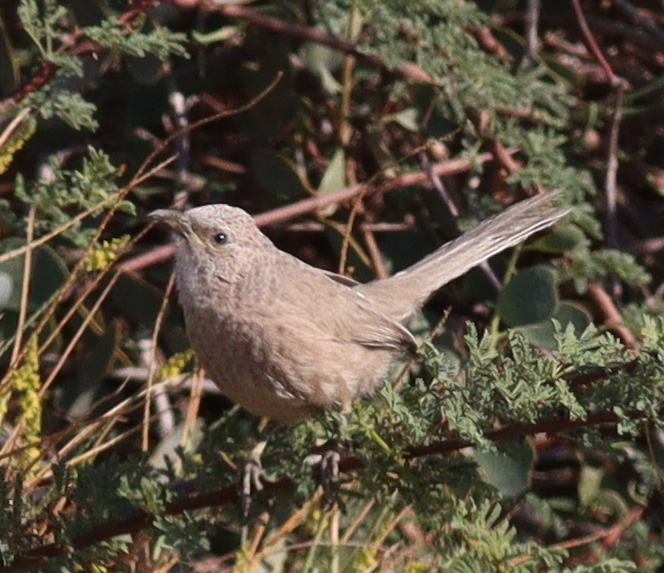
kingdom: Animalia
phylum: Chordata
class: Aves
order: Passeriformes
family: Leiothrichidae
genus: Turdoides
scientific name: Turdoides squamiceps
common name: Arabian babbler
